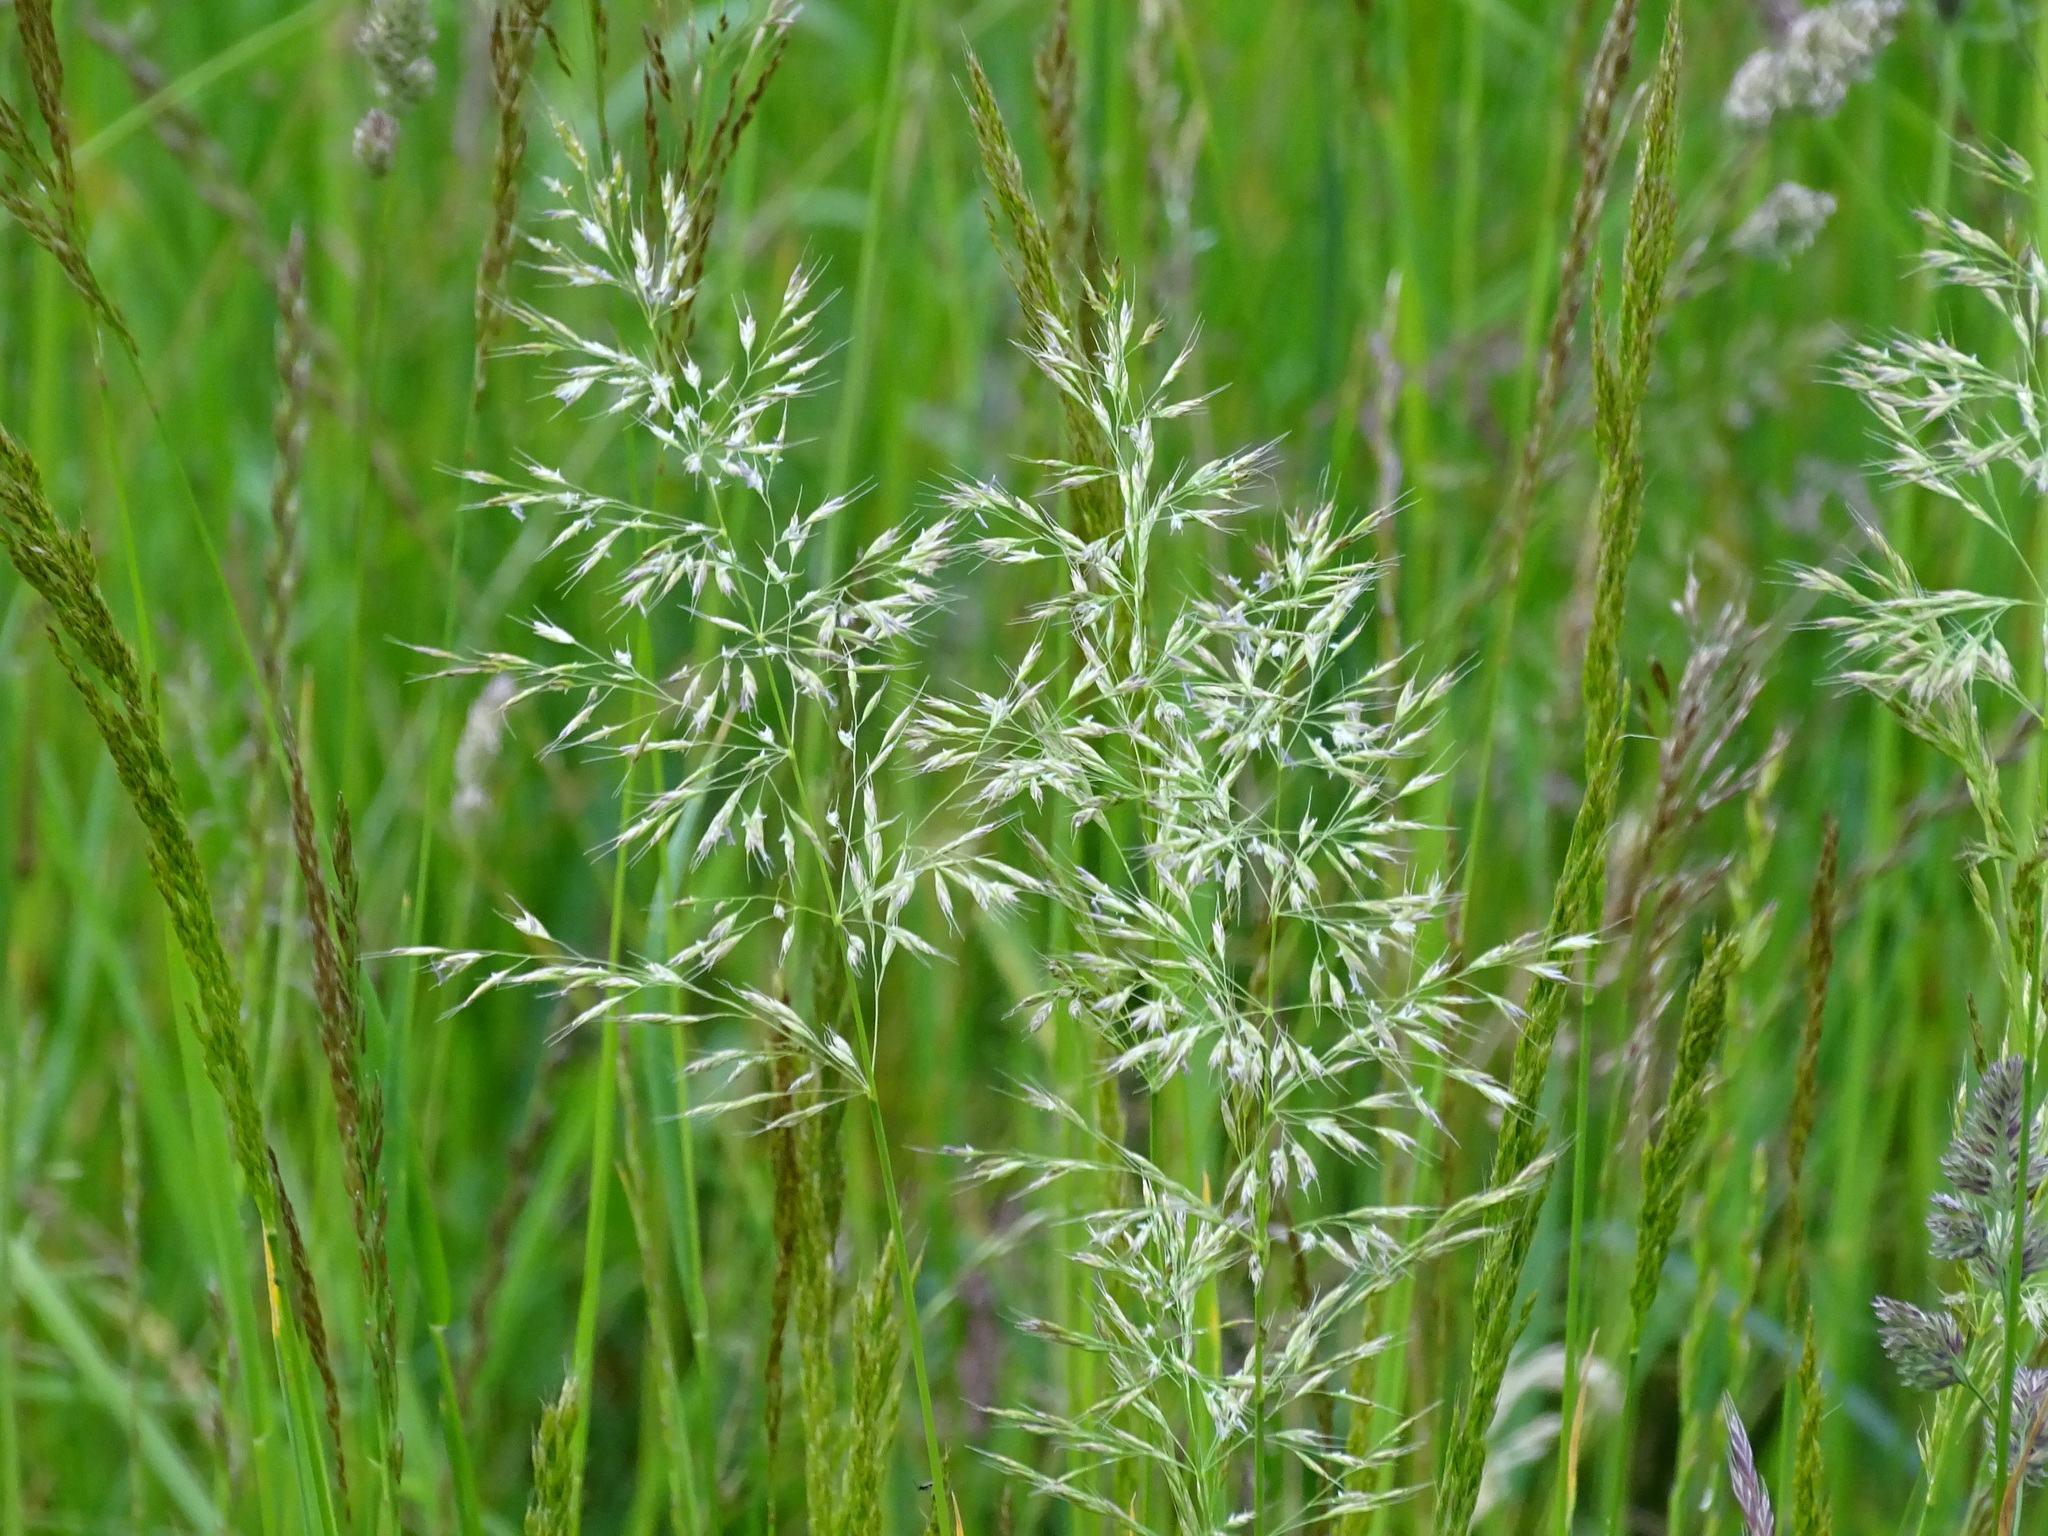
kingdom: Plantae
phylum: Tracheophyta
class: Liliopsida
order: Poales
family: Poaceae
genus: Trisetum
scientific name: Trisetum flavescens
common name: Yellow oat-grass
